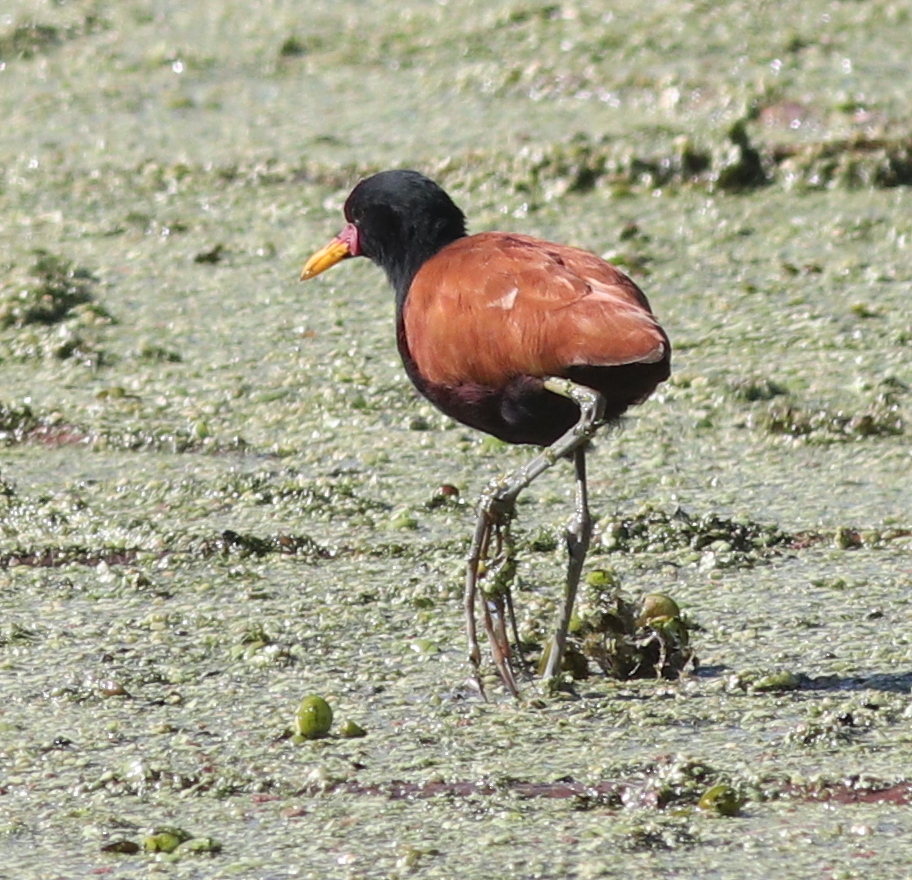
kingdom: Animalia
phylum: Chordata
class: Aves
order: Charadriiformes
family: Jacanidae
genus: Jacana
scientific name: Jacana jacana
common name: Wattled jacana
